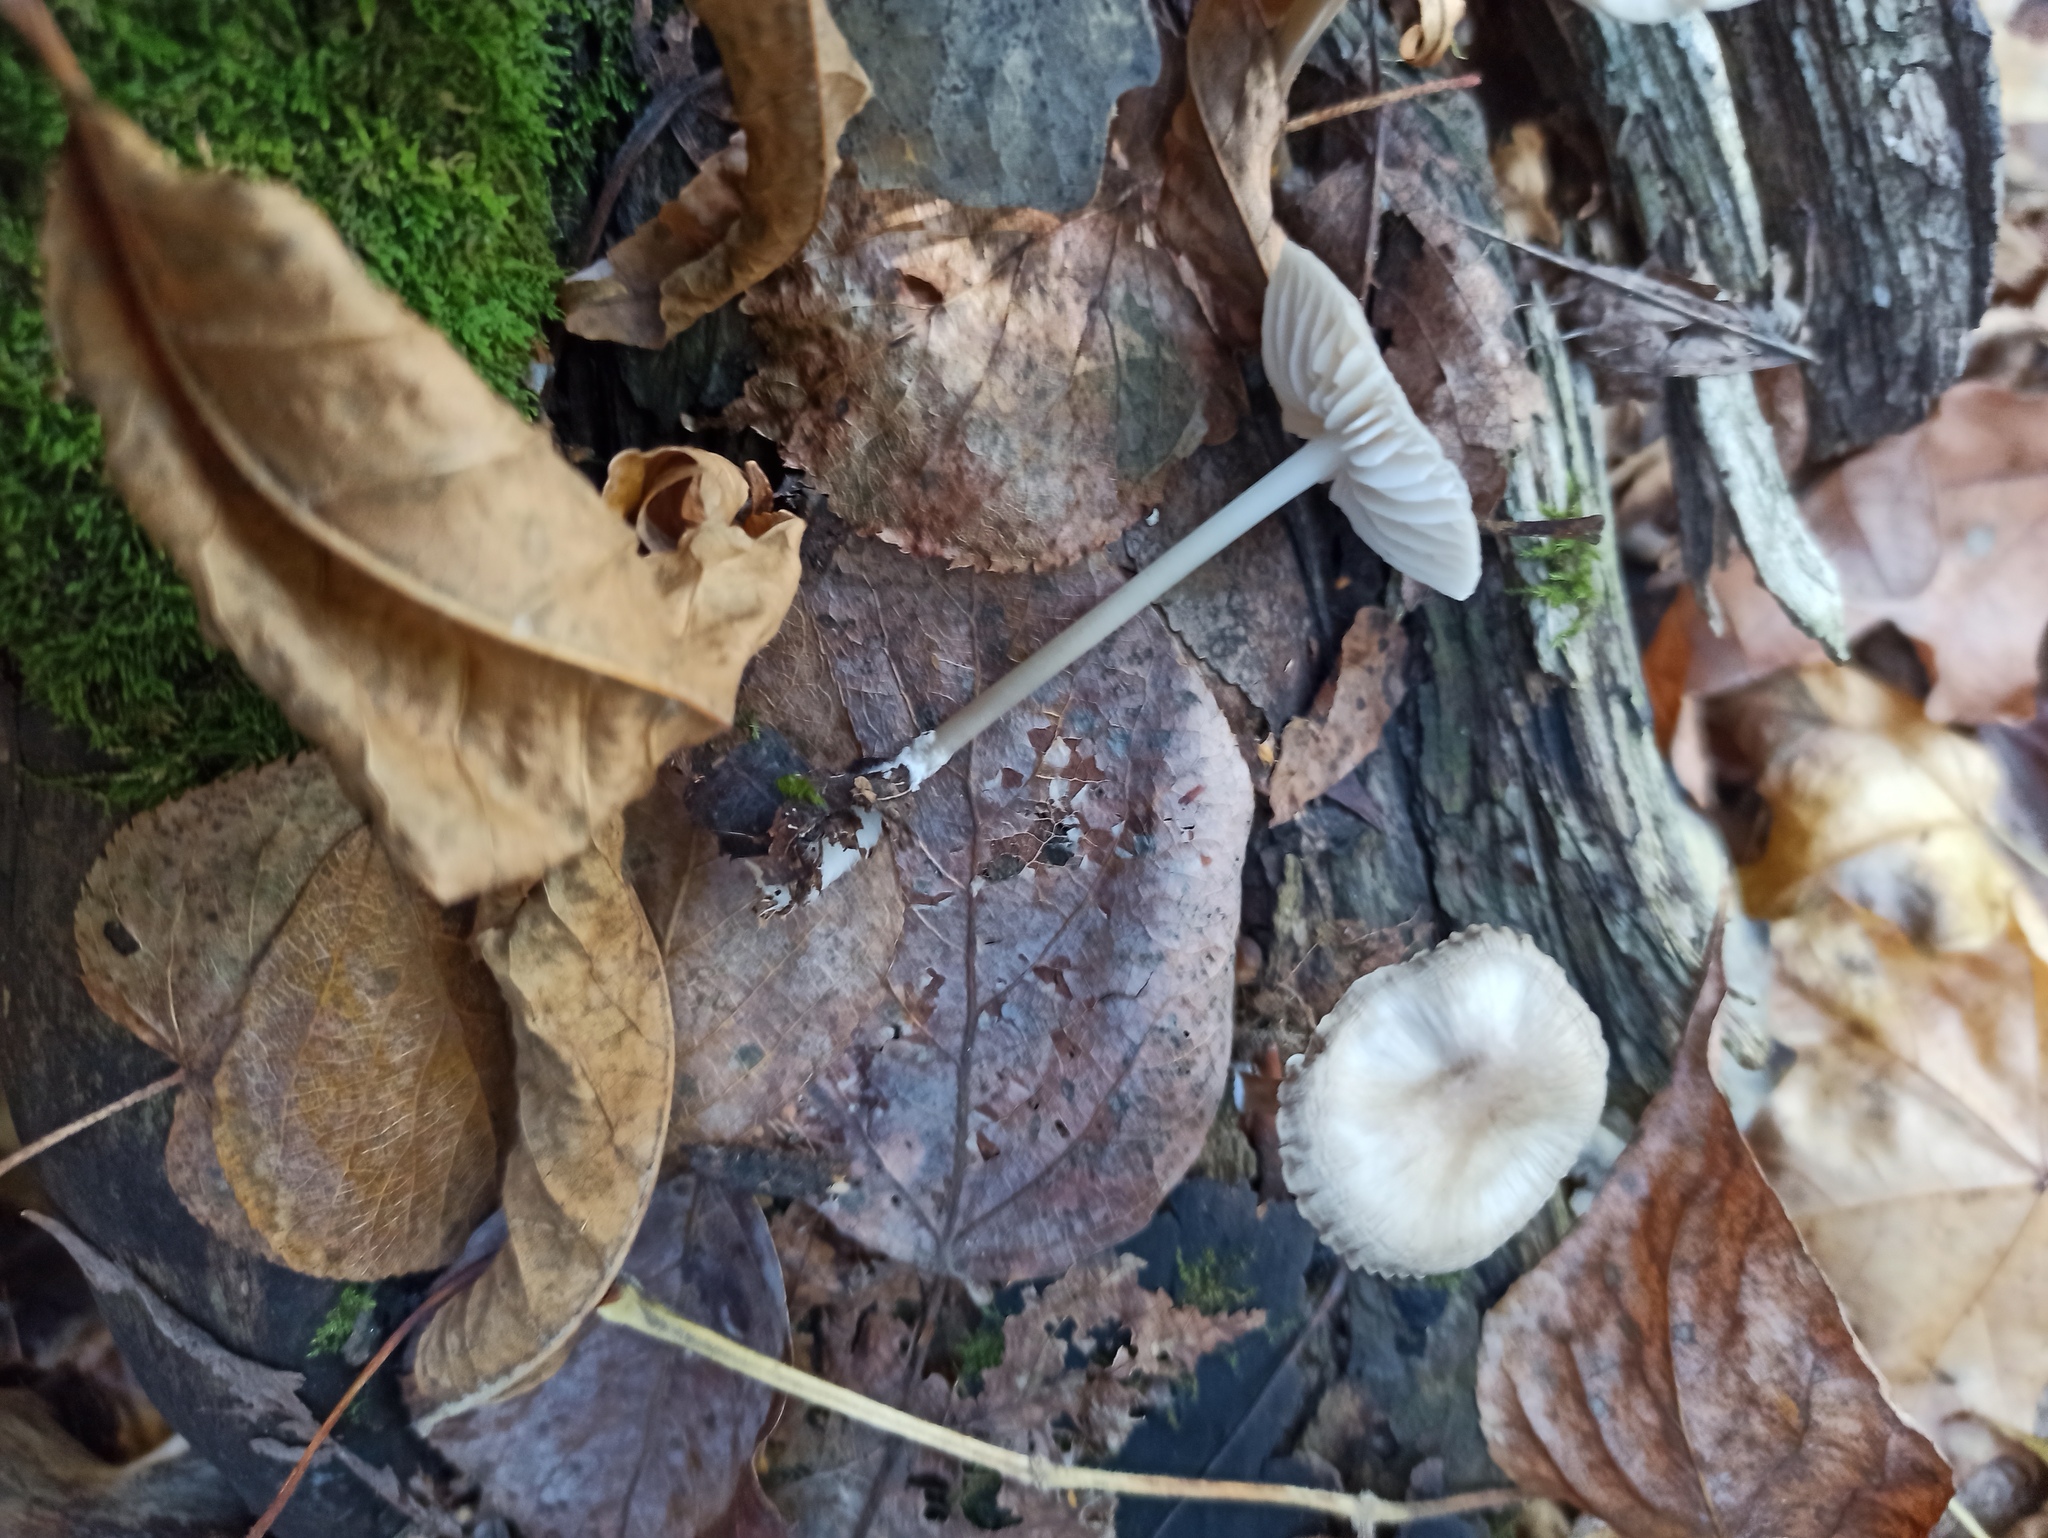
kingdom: Fungi
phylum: Basidiomycota
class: Agaricomycetes
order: Agaricales
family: Mycenaceae
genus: Mycena
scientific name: Mycena galericulata
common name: Bonnet mycena
